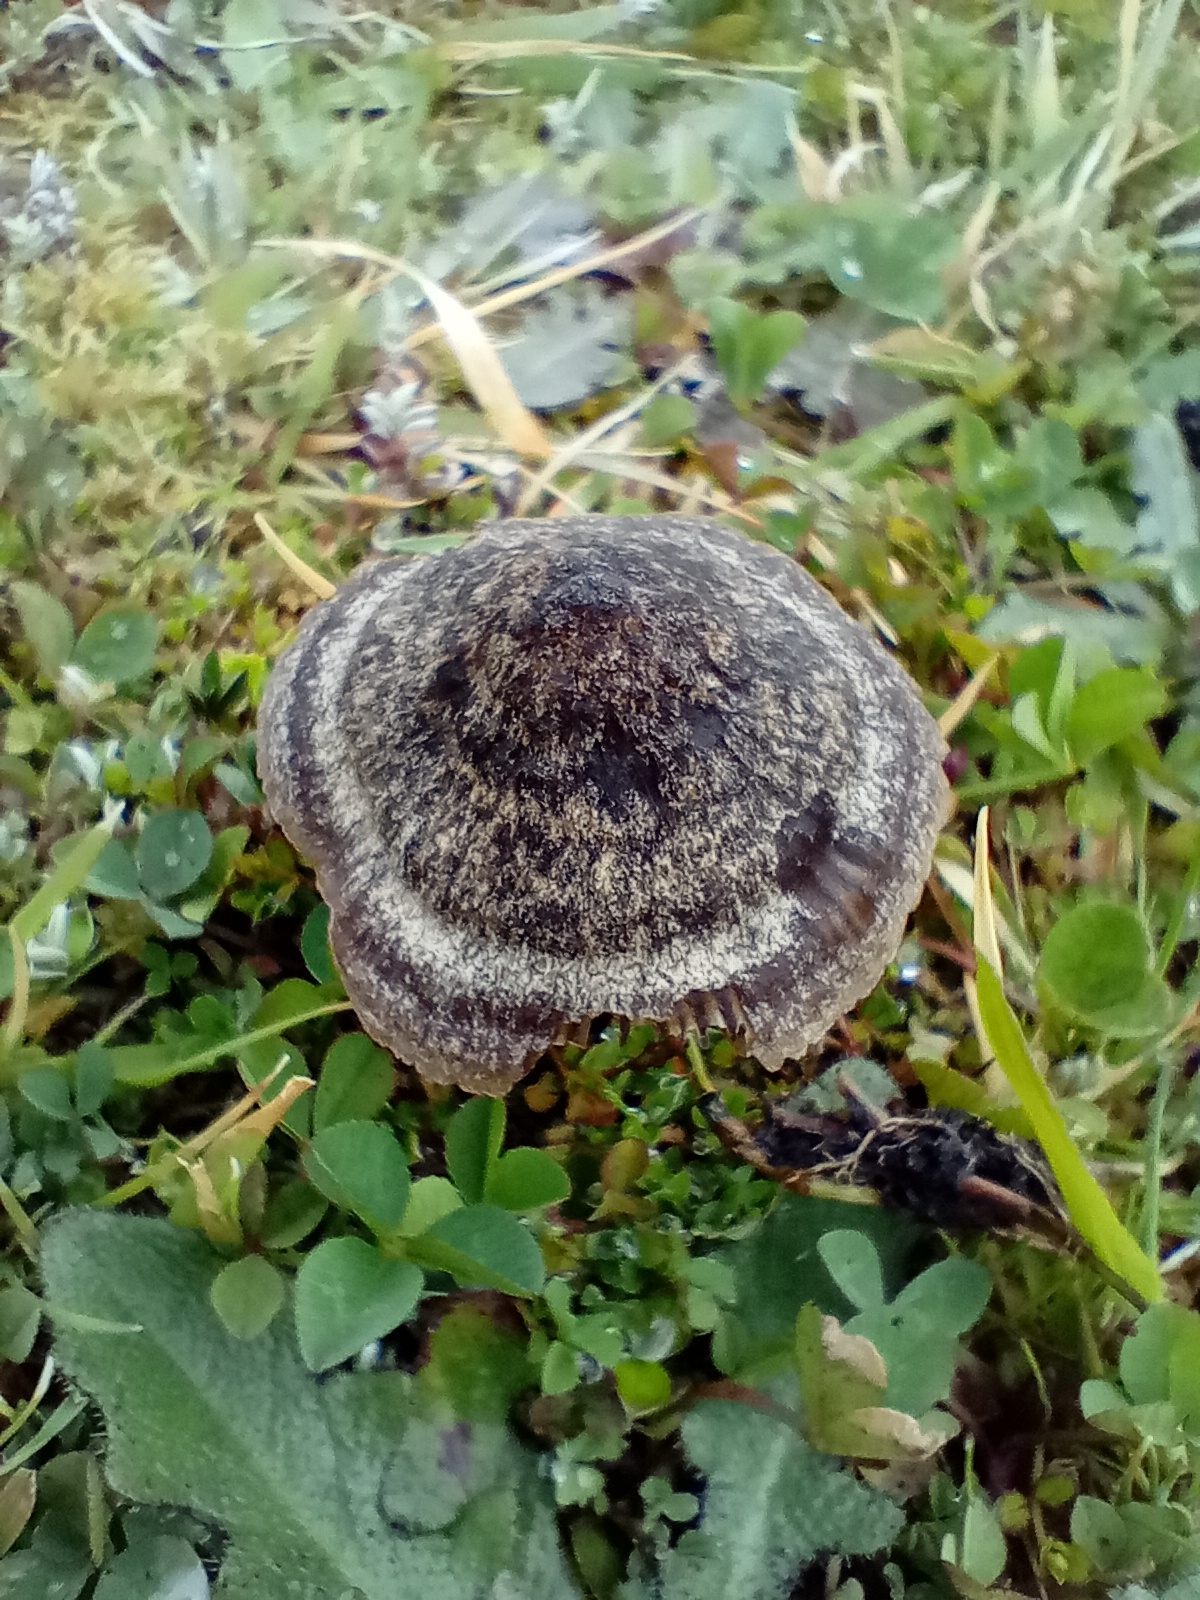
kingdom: Fungi
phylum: Basidiomycota
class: Agaricomycetes
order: Agaricales
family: Entolomataceae
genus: Entoloma
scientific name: Entoloma perzonatum
